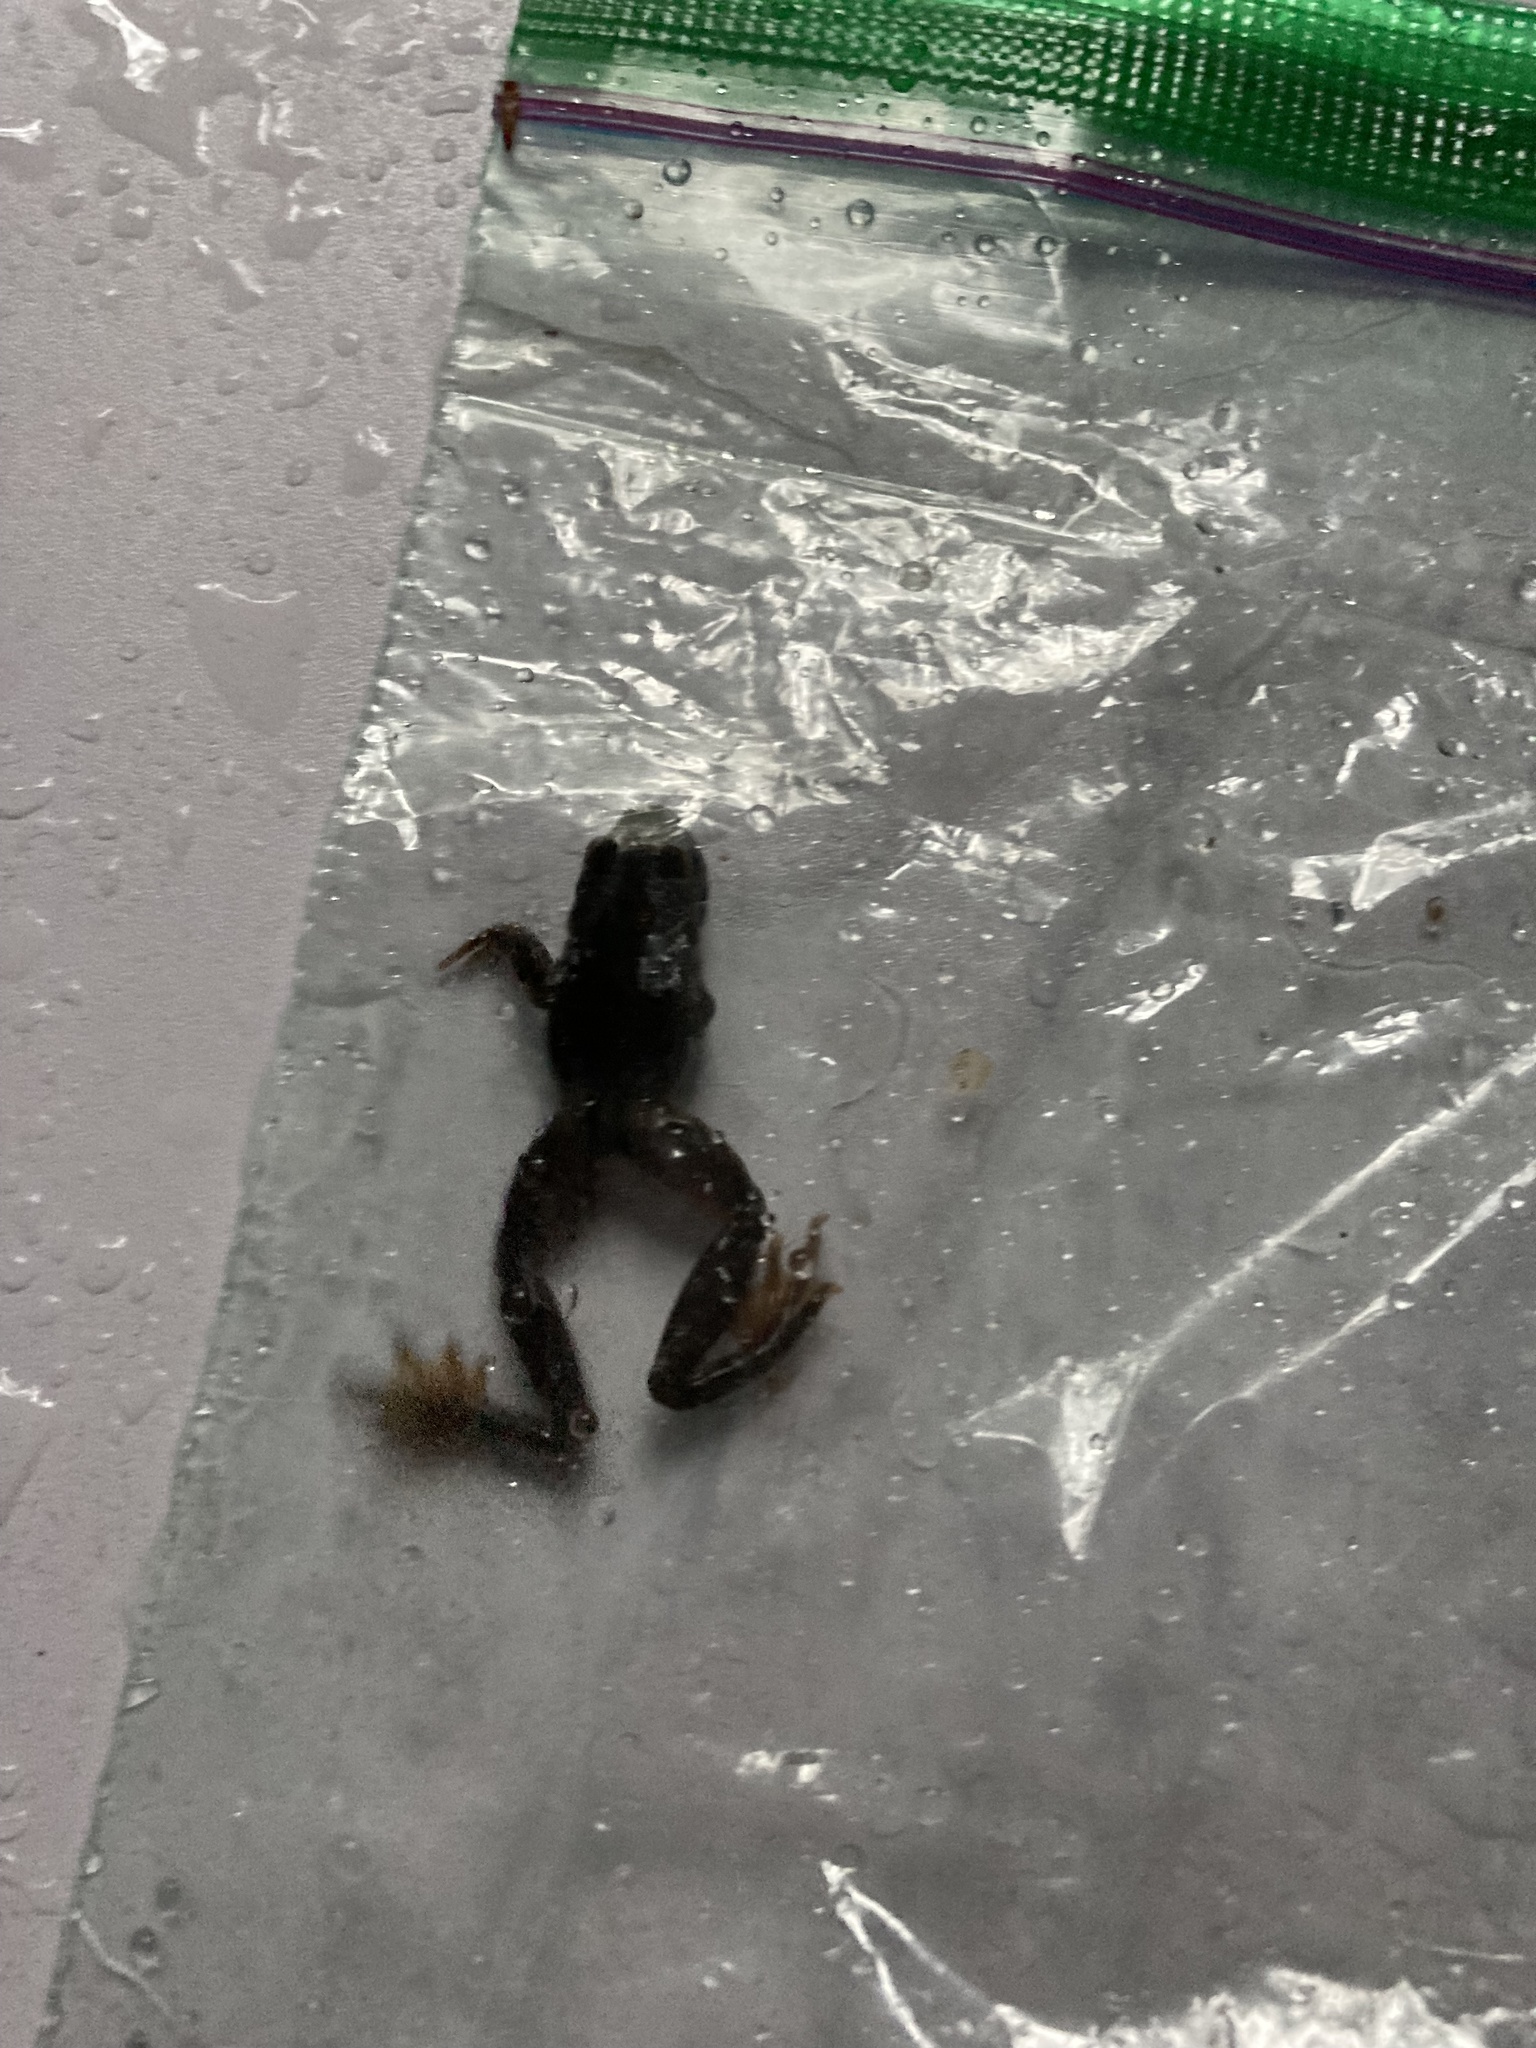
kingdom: Animalia
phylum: Chordata
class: Amphibia
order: Anura
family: Ascaphidae
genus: Ascaphus
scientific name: Ascaphus truei
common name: Tailed frog
